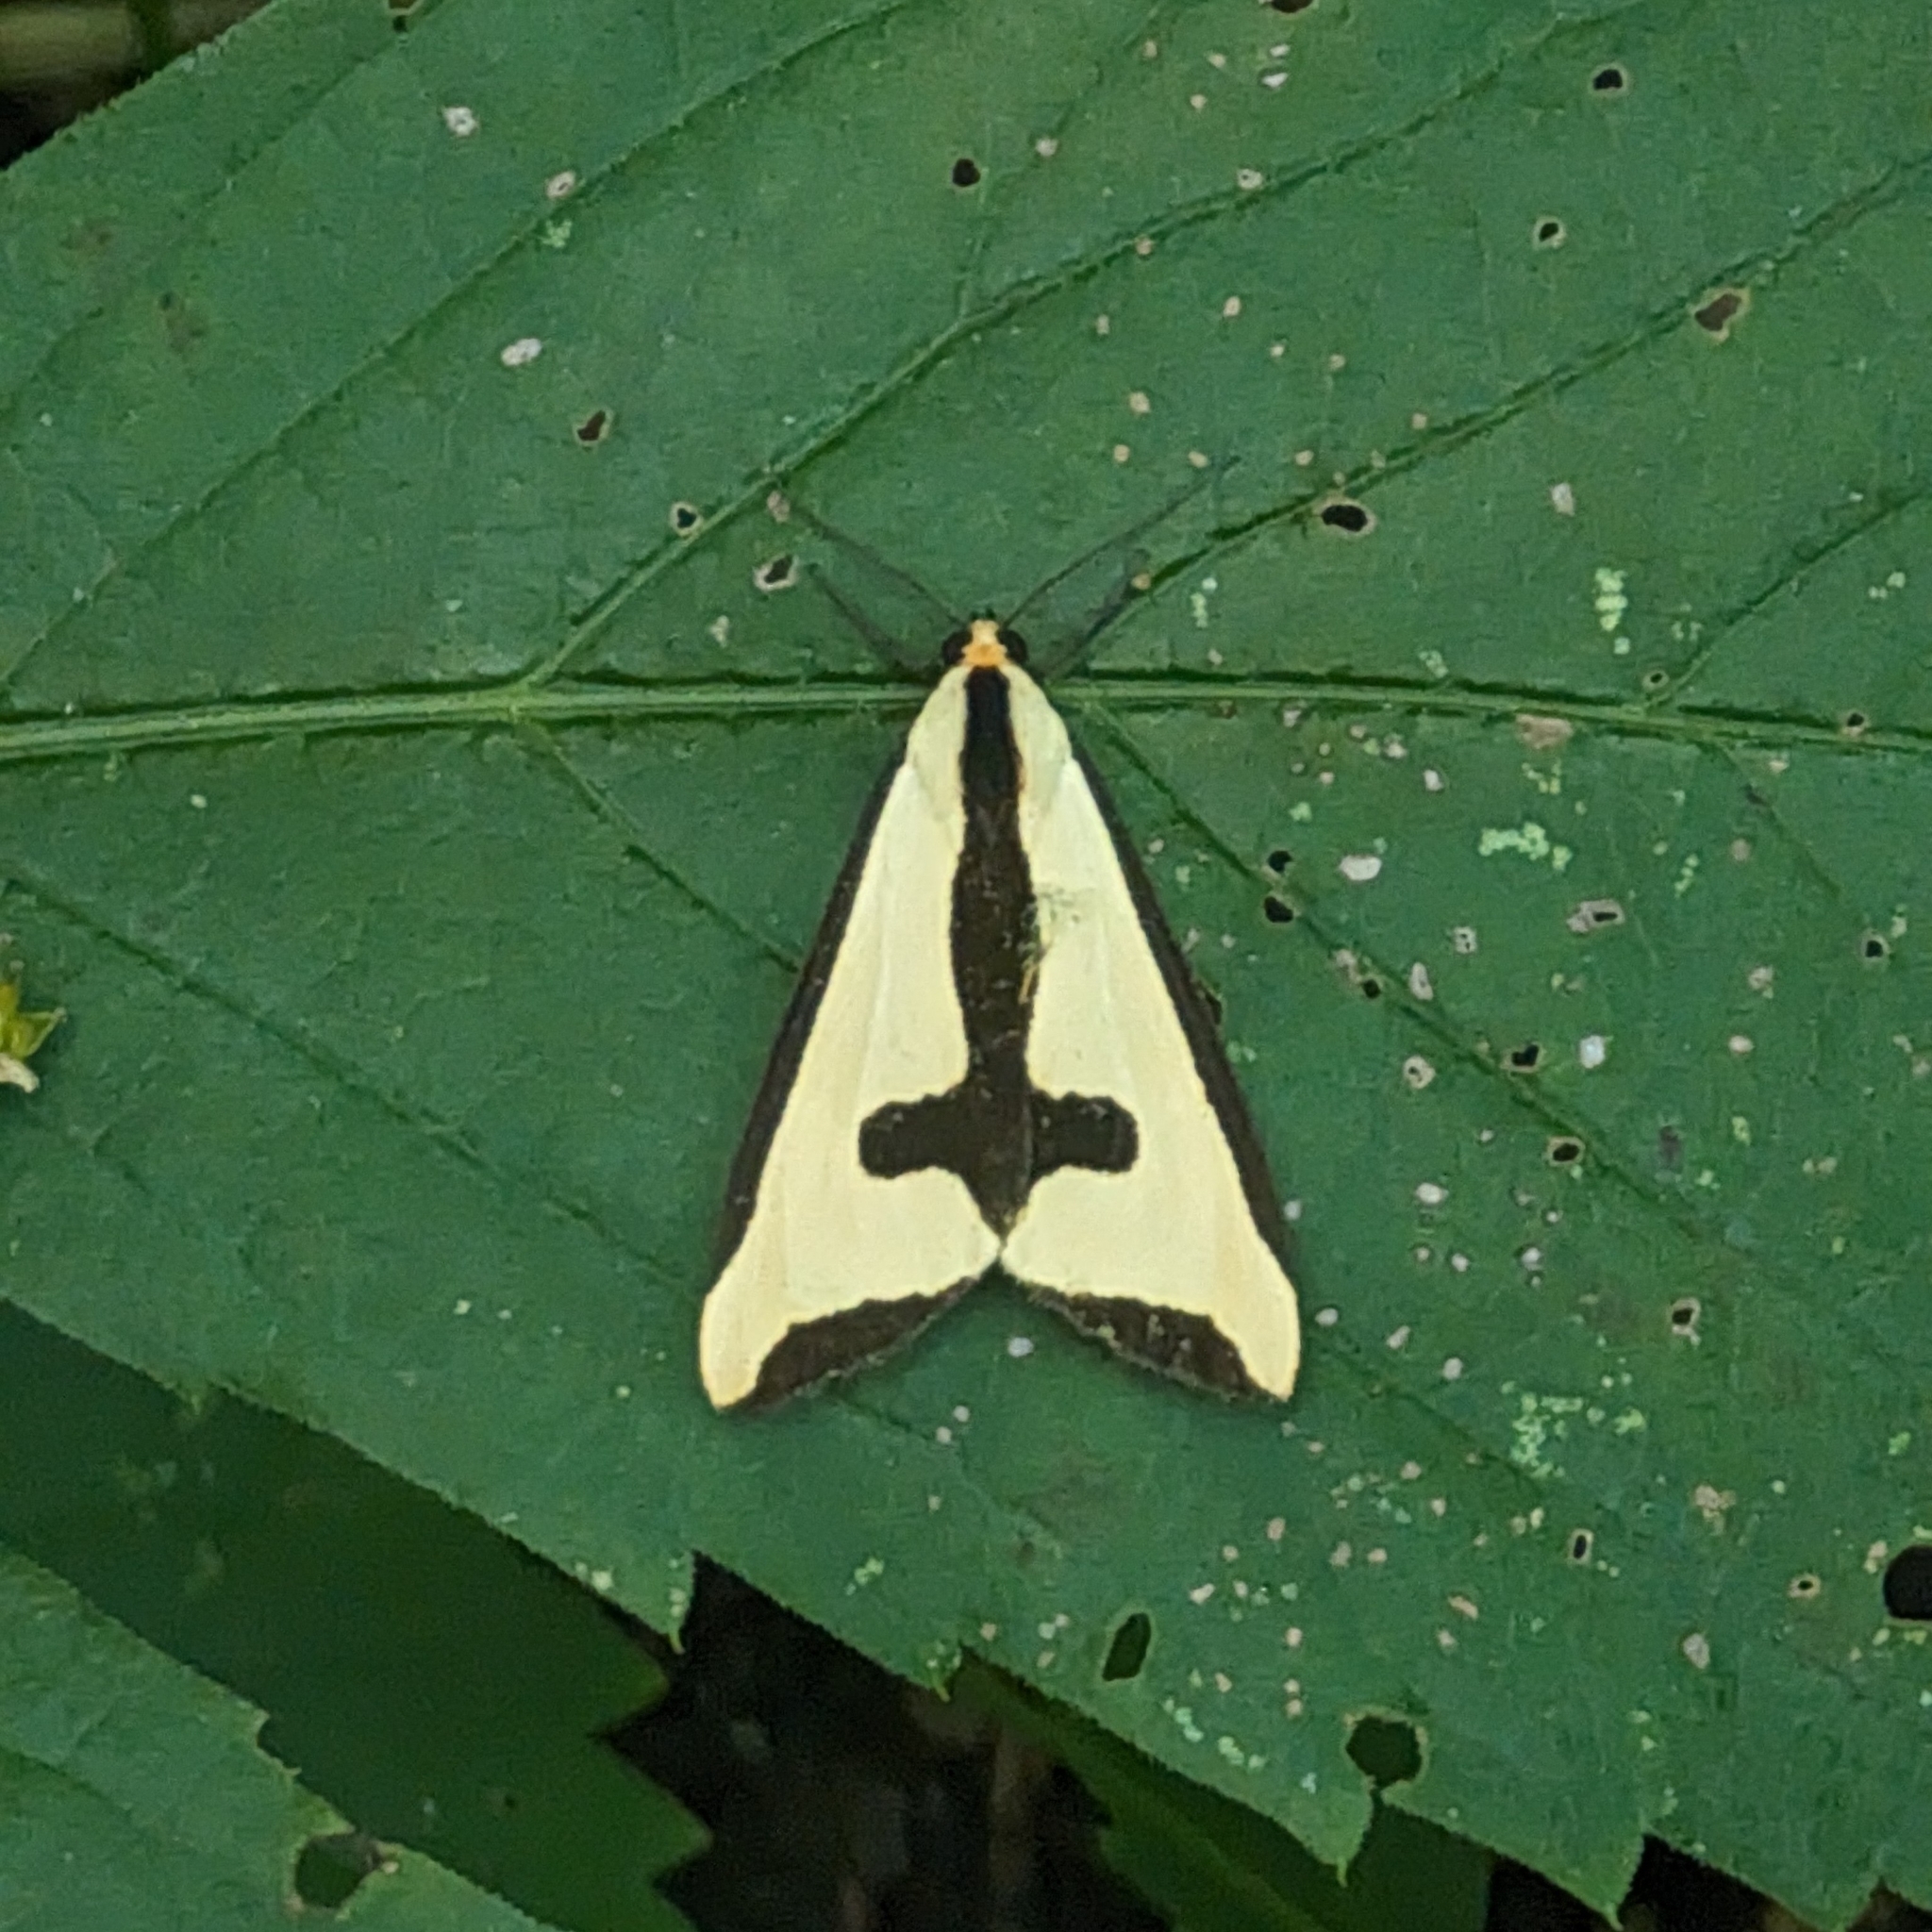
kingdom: Animalia
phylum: Arthropoda
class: Insecta
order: Lepidoptera
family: Erebidae
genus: Haploa
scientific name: Haploa clymene
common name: Clymene moth
